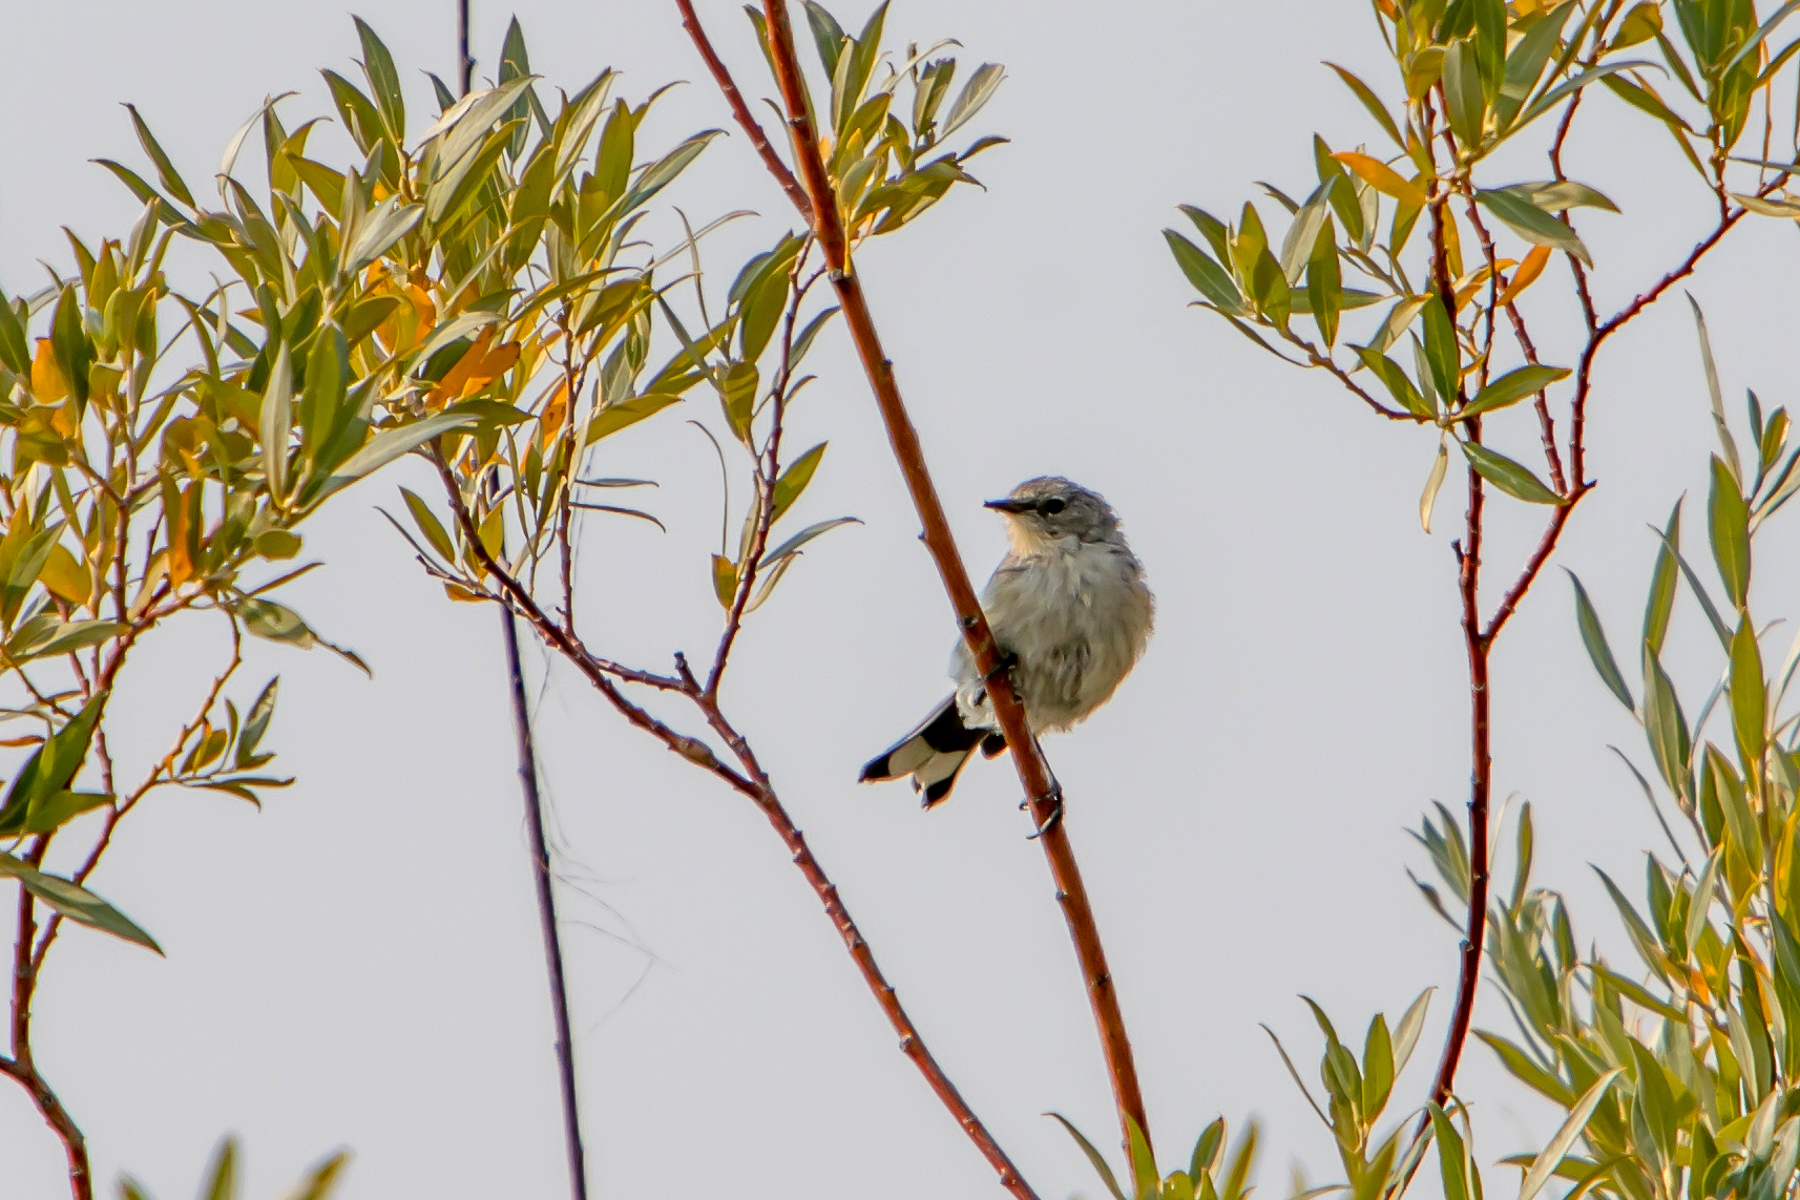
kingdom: Animalia
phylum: Chordata
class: Aves
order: Passeriformes
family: Parulidae
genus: Setophaga
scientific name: Setophaga auduboni
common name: Audubon's warbler
